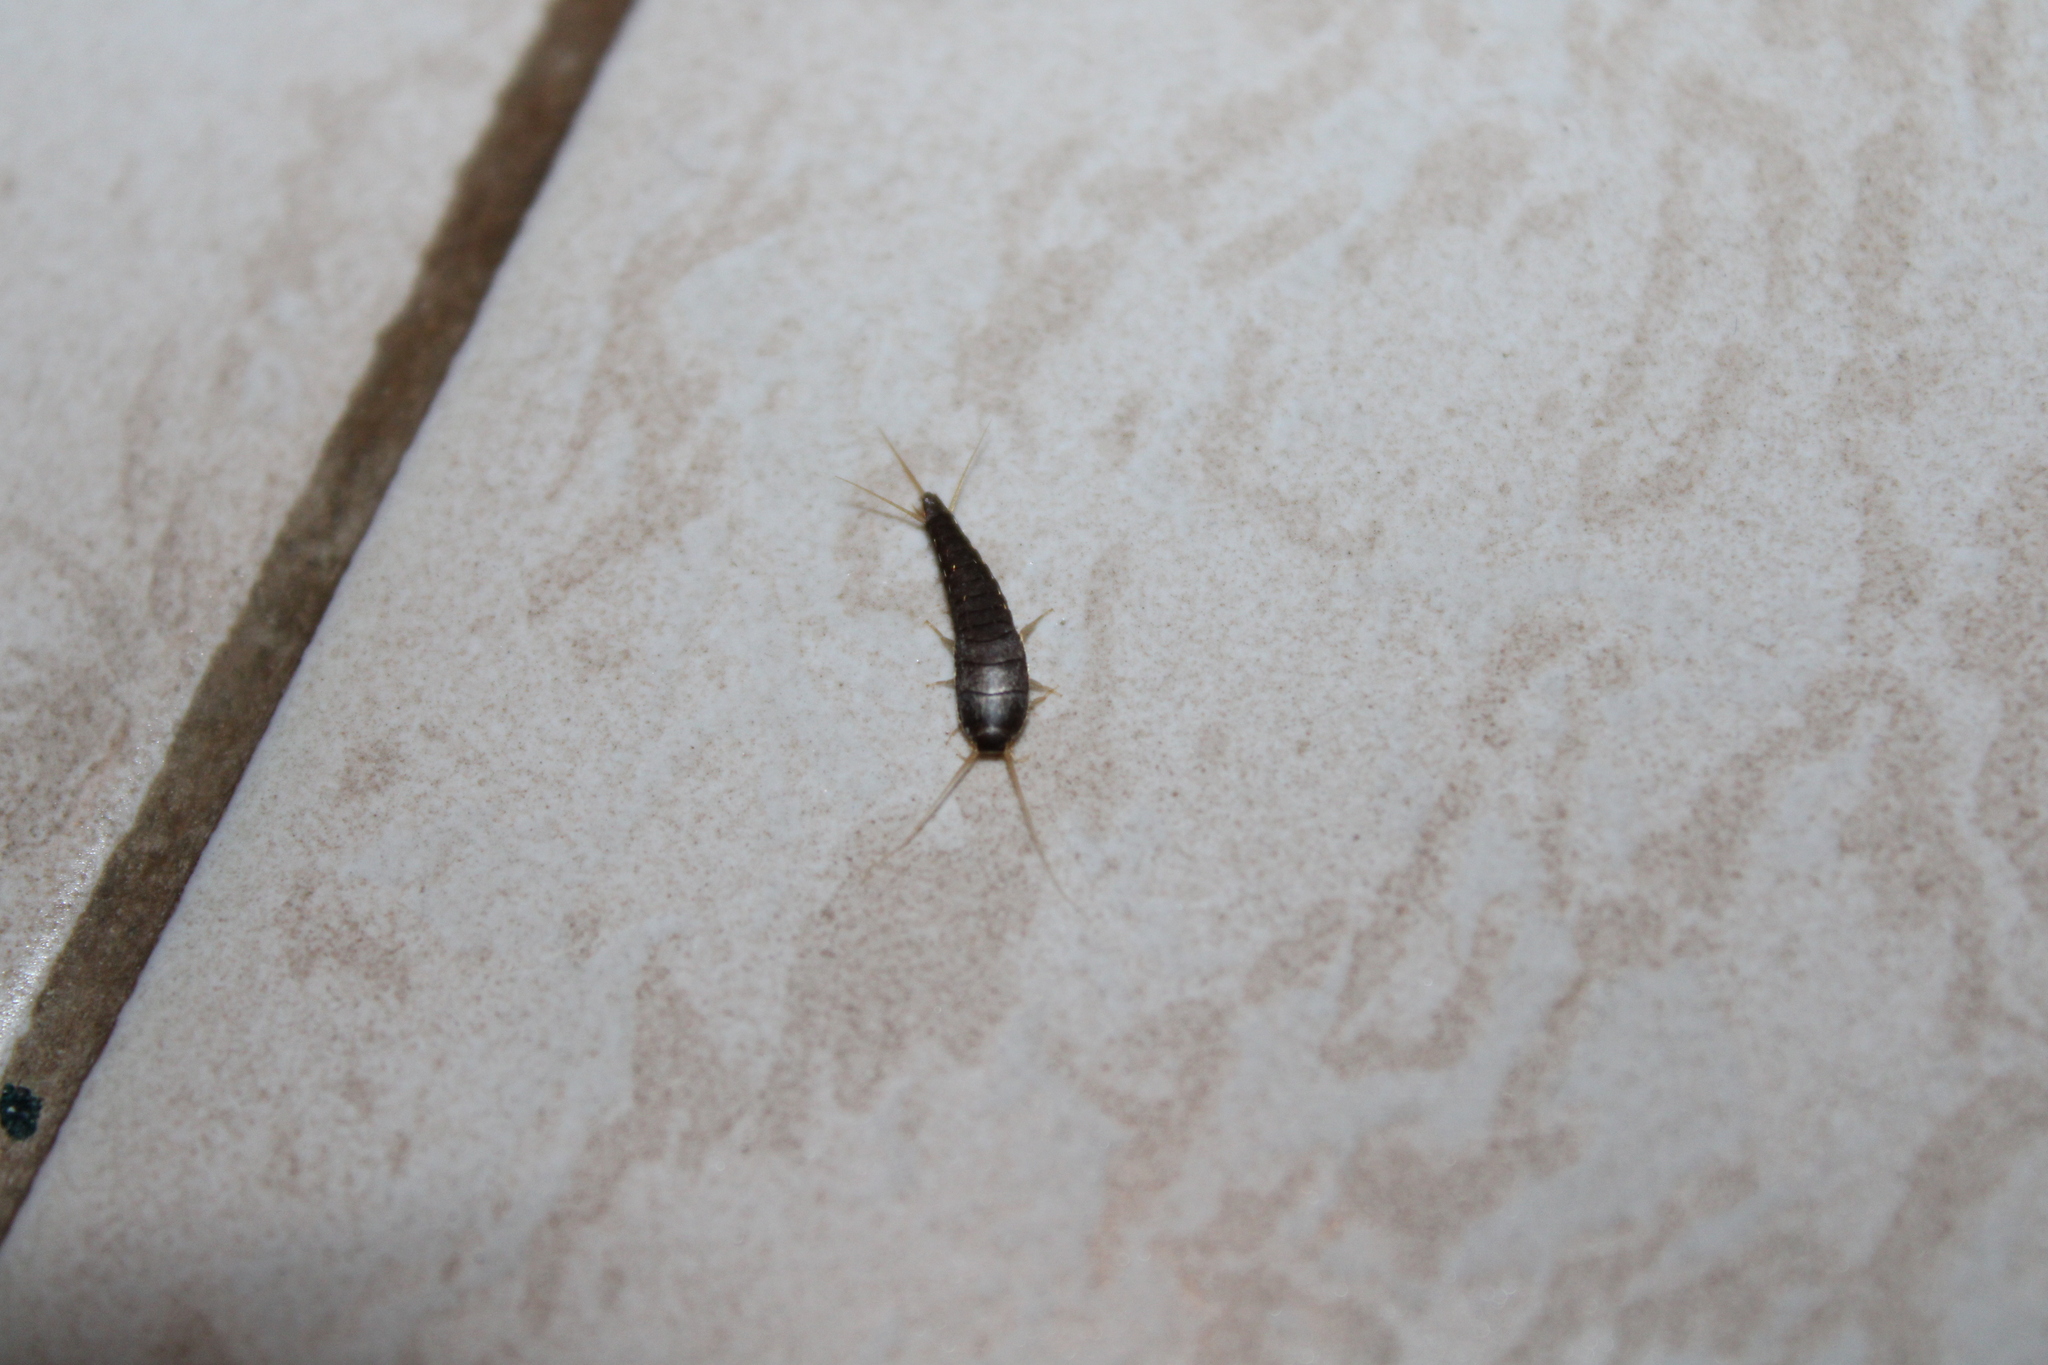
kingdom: Animalia
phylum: Arthropoda
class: Insecta
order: Zygentoma
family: Lepismatidae
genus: Lepisma
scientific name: Lepisma saccharinum
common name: Silverfish
